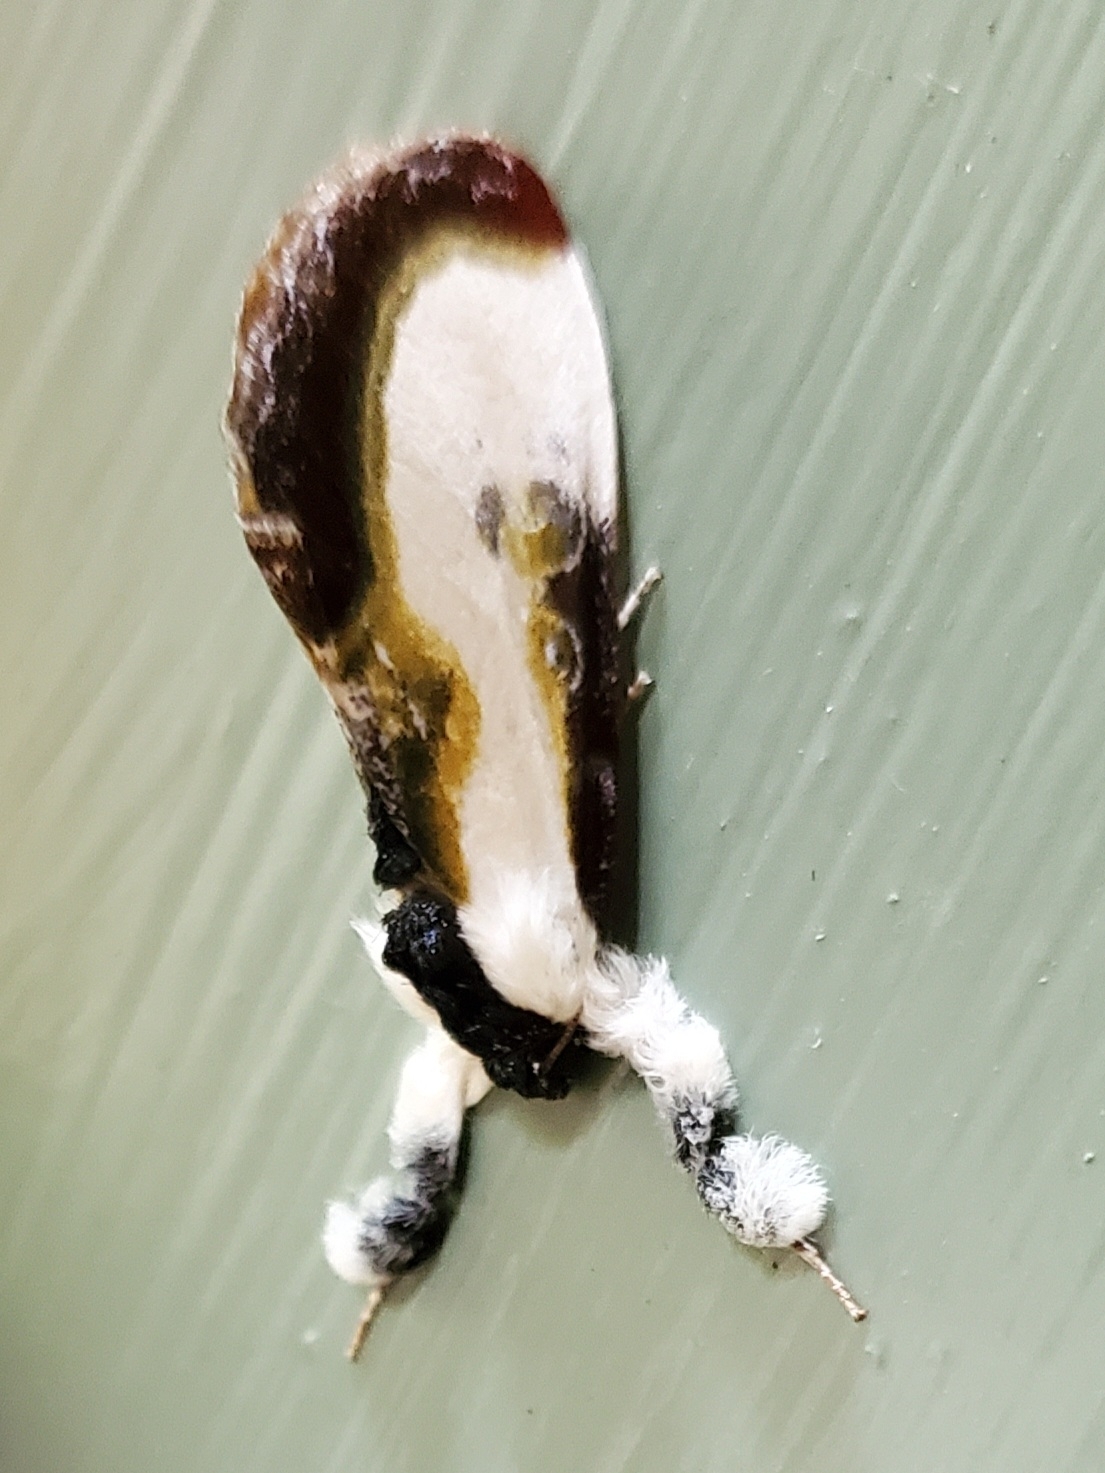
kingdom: Animalia
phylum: Arthropoda
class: Insecta
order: Lepidoptera
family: Noctuidae
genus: Eudryas
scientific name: Eudryas grata
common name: Beautiful wood-nymph
